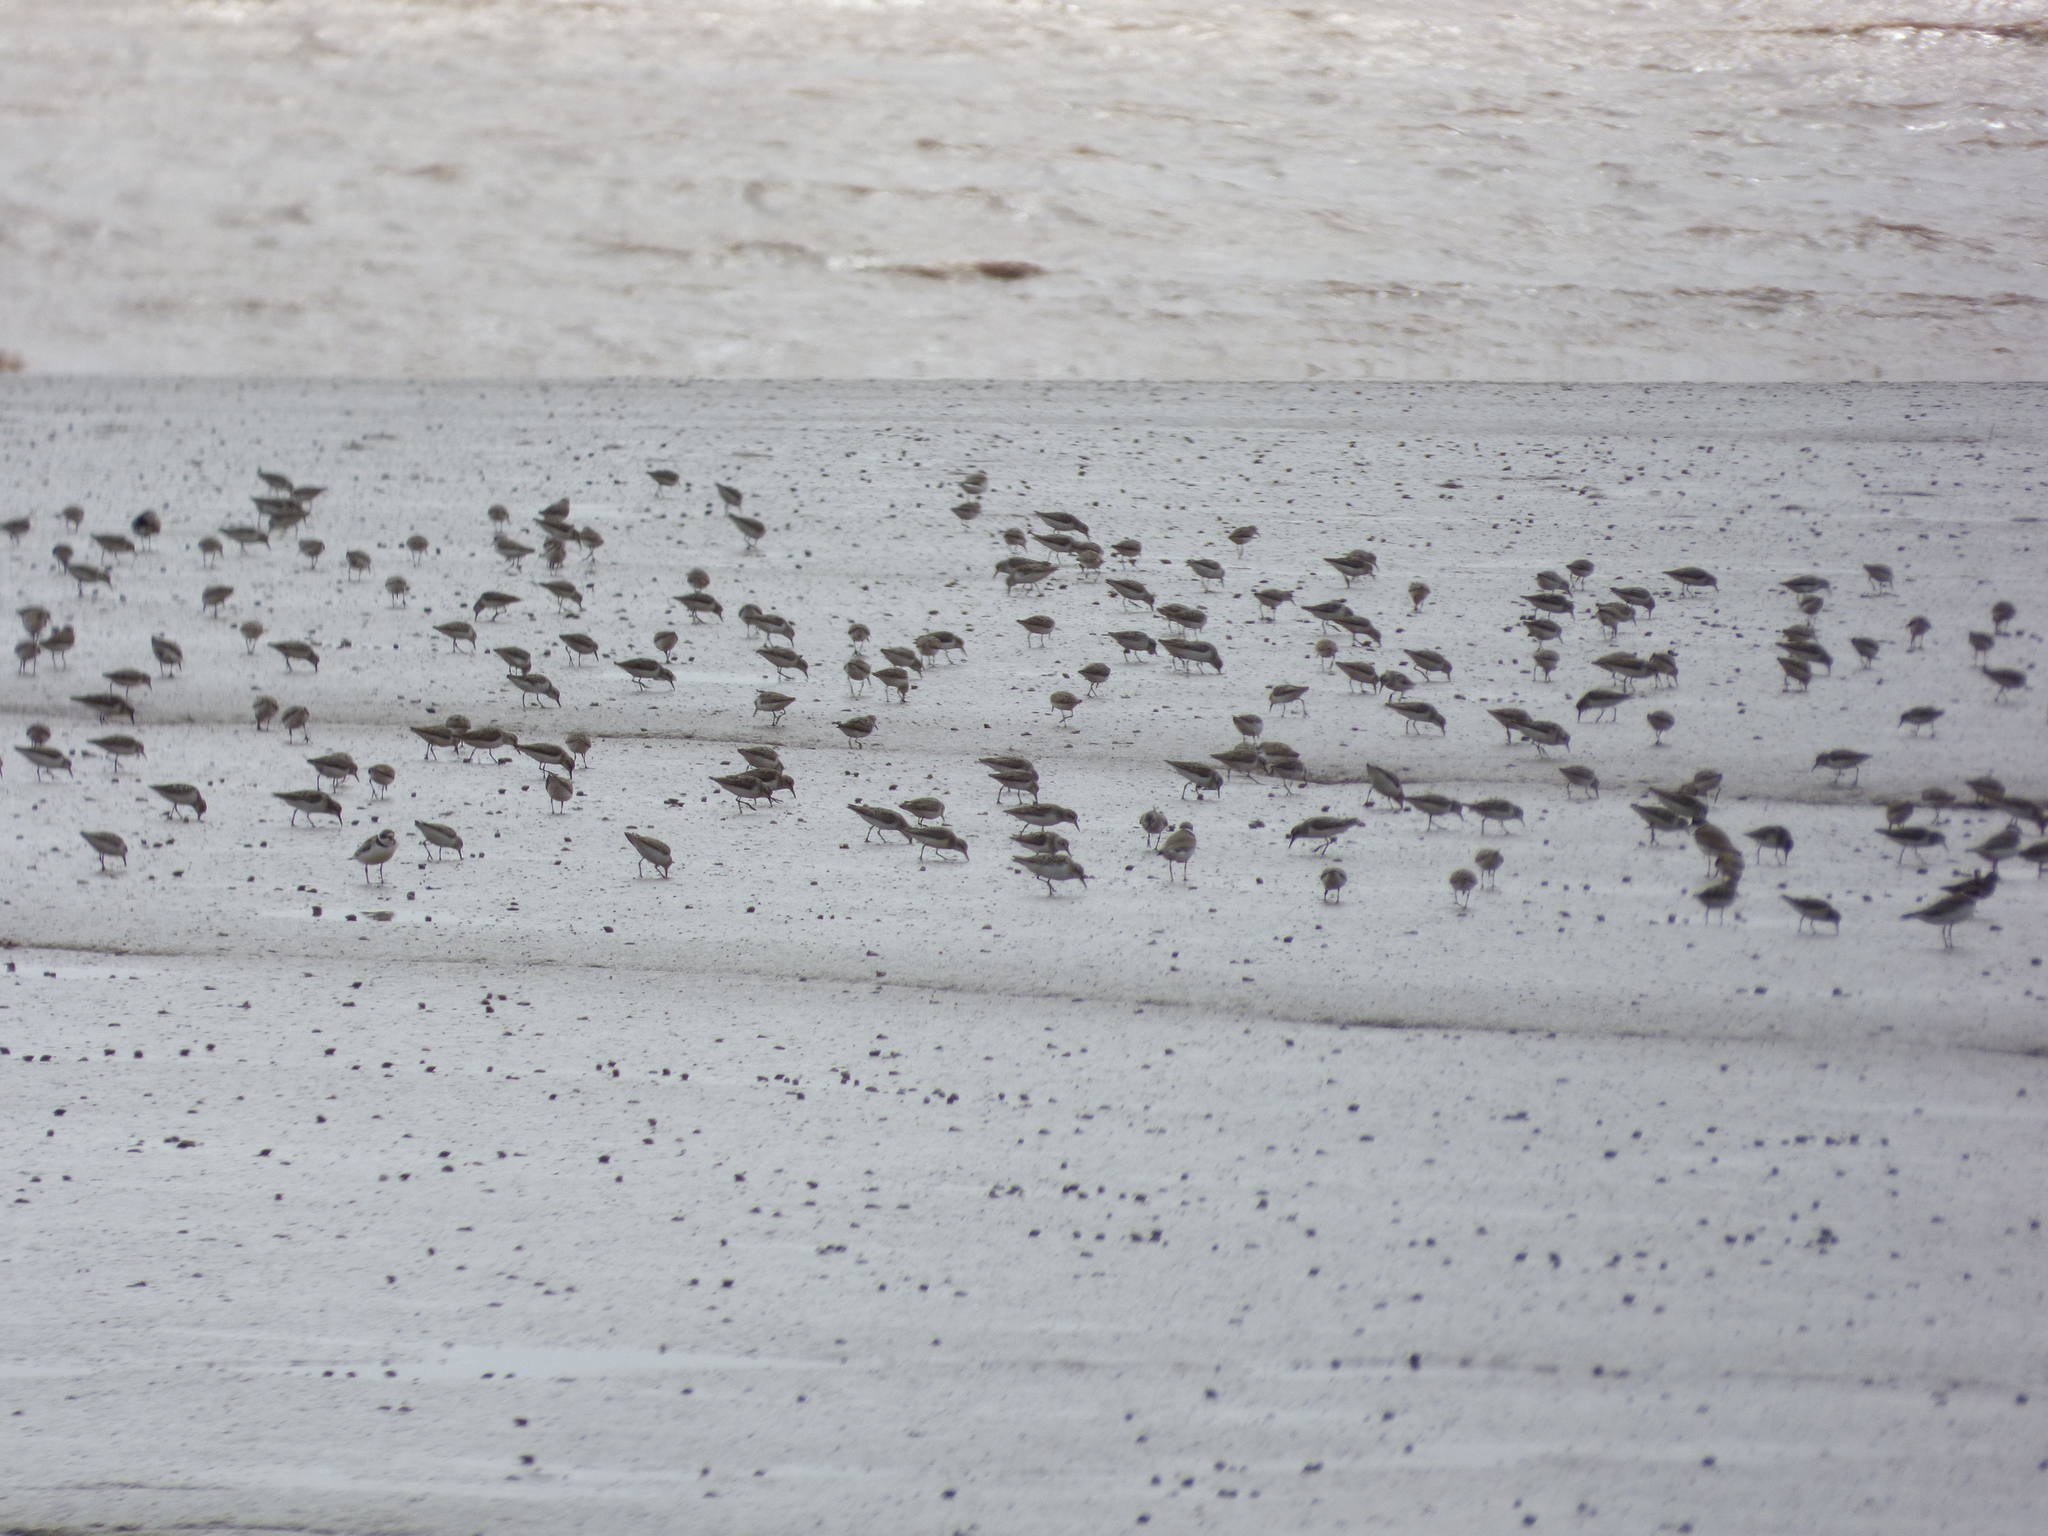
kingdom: Animalia
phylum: Chordata
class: Aves
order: Charadriiformes
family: Scolopacidae
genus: Calidris
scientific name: Calidris pusilla
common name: Semipalmated sandpiper
